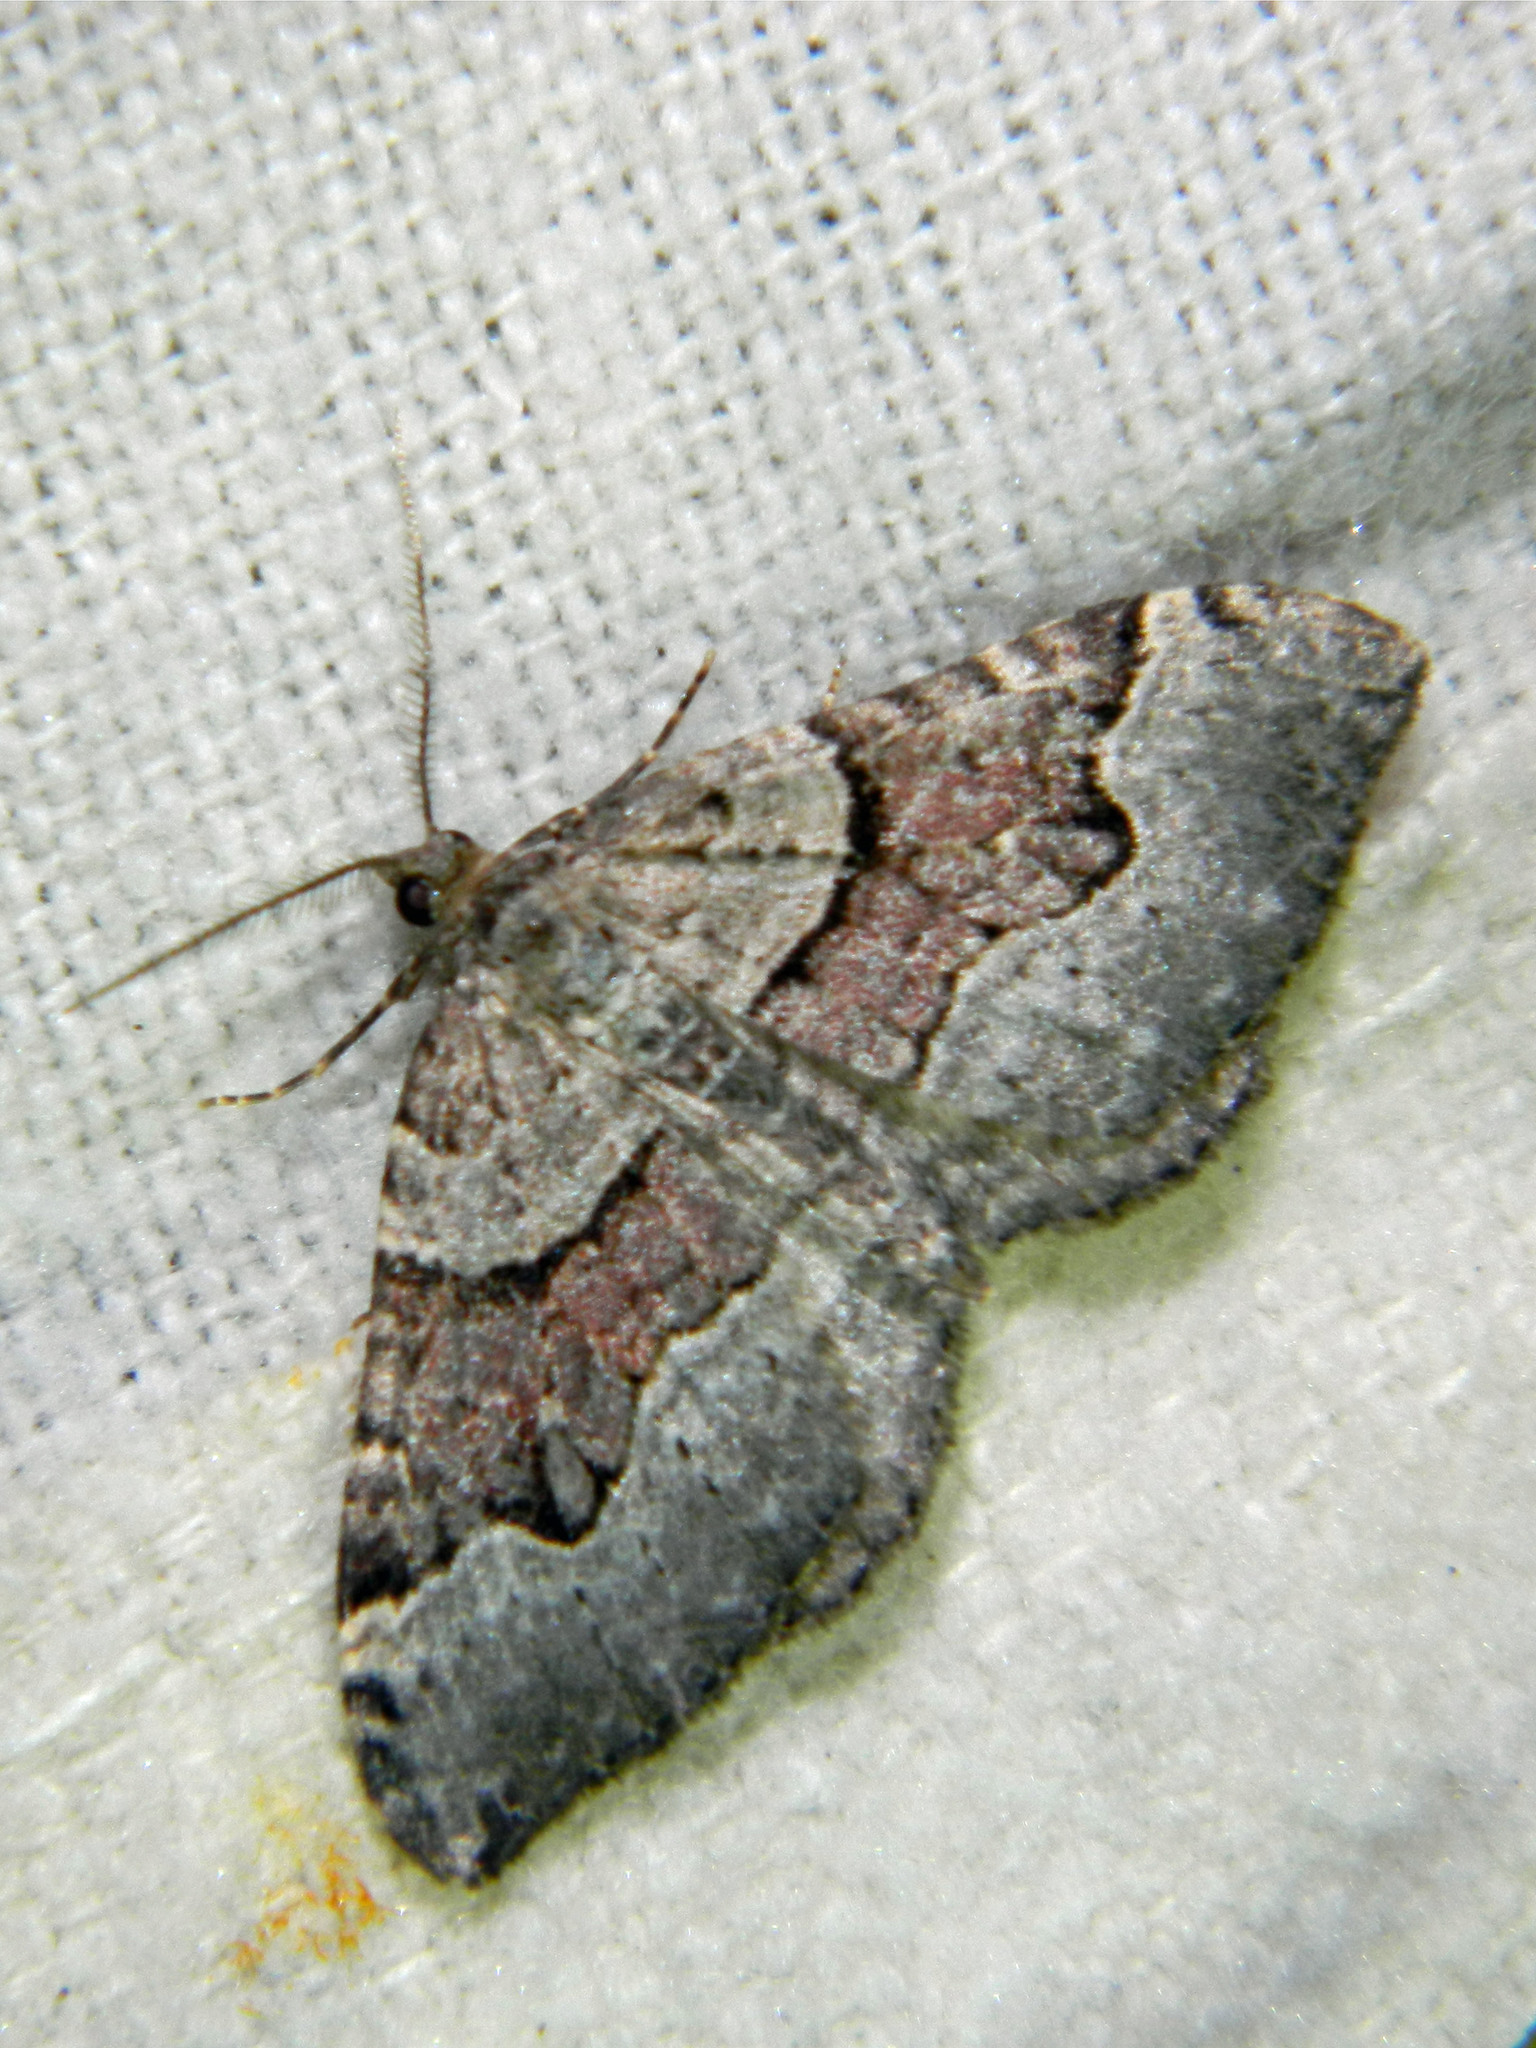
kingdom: Animalia
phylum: Arthropoda
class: Insecta
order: Lepidoptera
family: Geometridae
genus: Xanthorhoe
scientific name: Xanthorhoe decoloraria
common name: Red carpet
